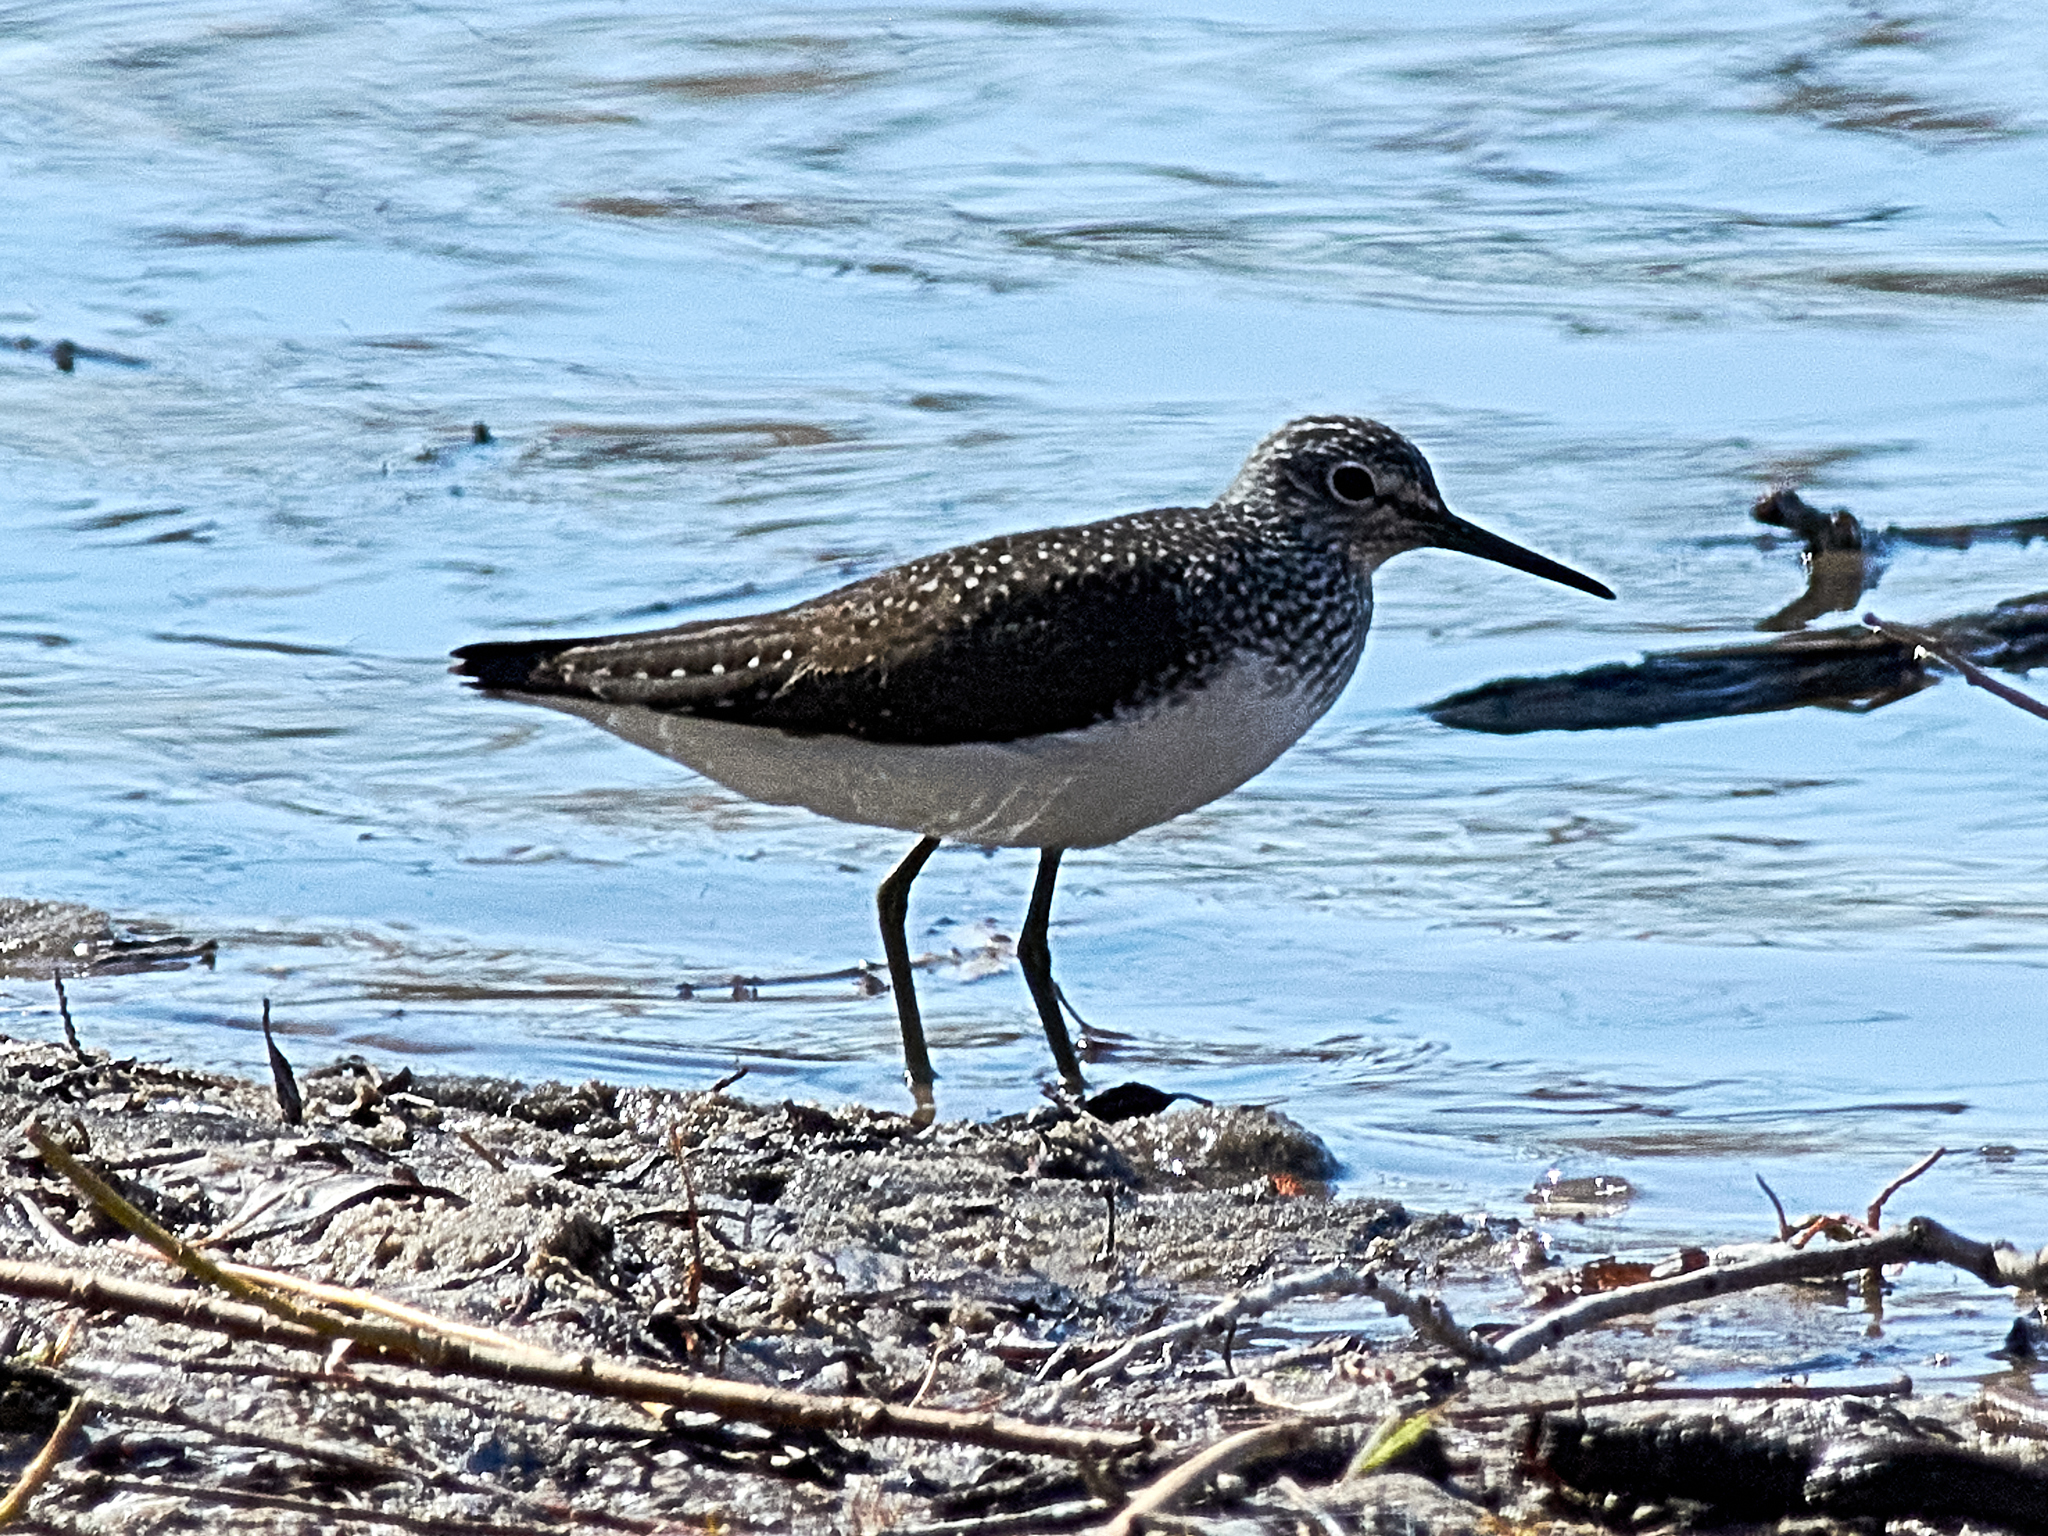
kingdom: Animalia
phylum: Chordata
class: Aves
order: Charadriiformes
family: Scolopacidae
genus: Tringa
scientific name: Tringa ochropus
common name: Green sandpiper
